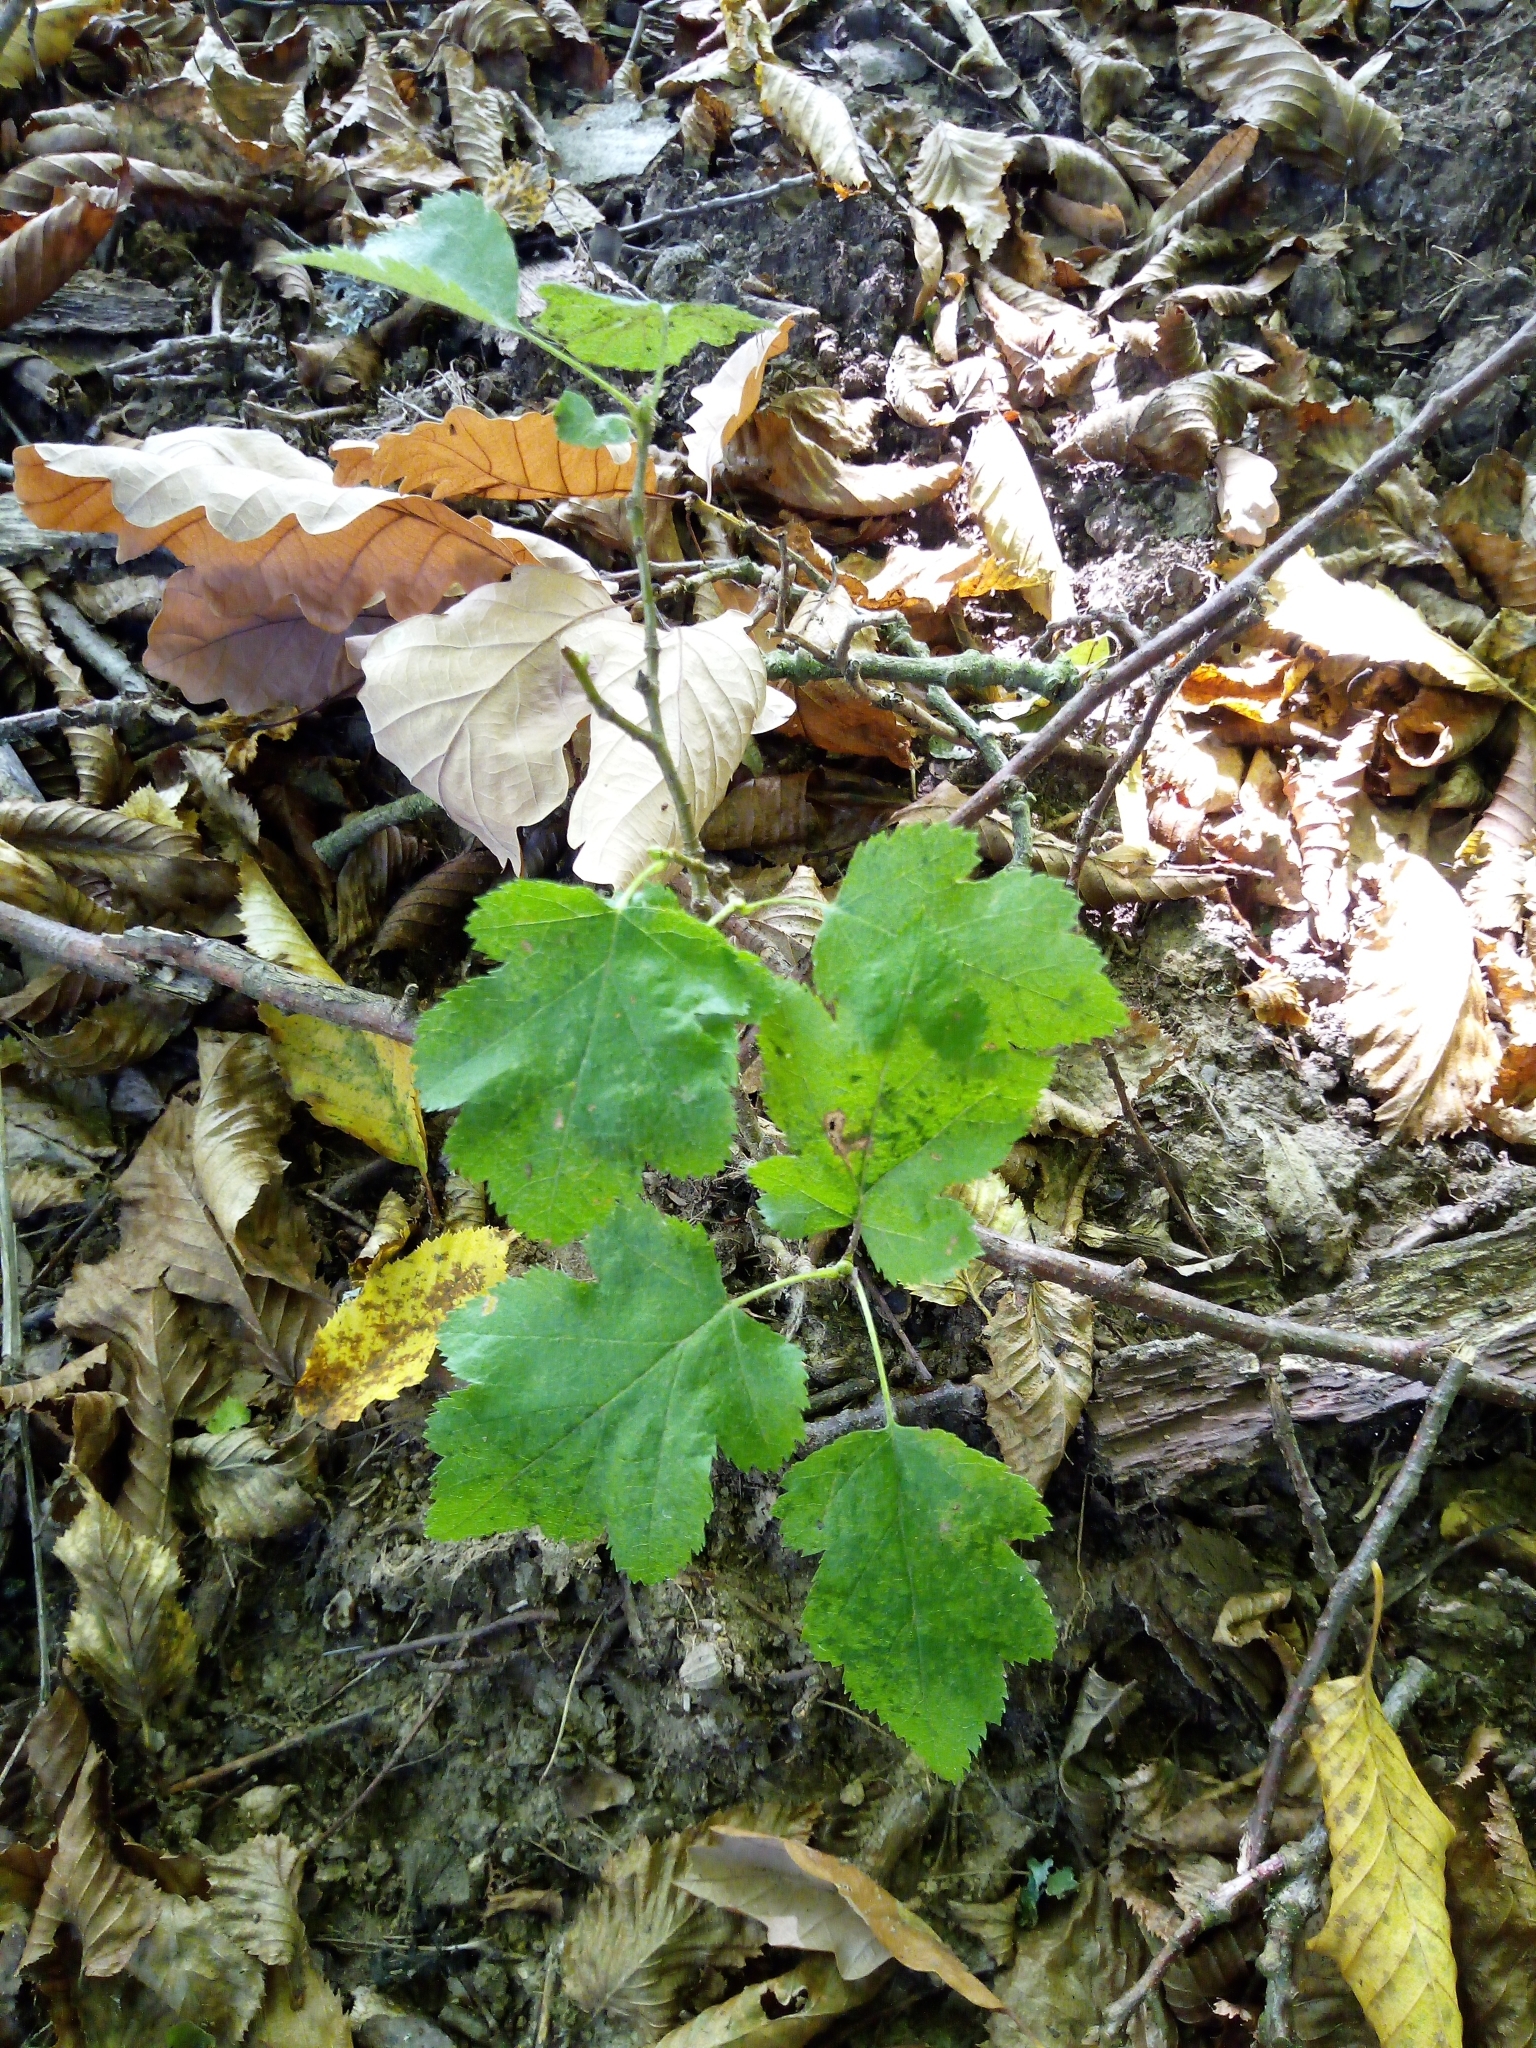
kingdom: Plantae
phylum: Tracheophyta
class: Magnoliopsida
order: Rosales
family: Rosaceae
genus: Torminalis
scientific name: Torminalis glaberrima
